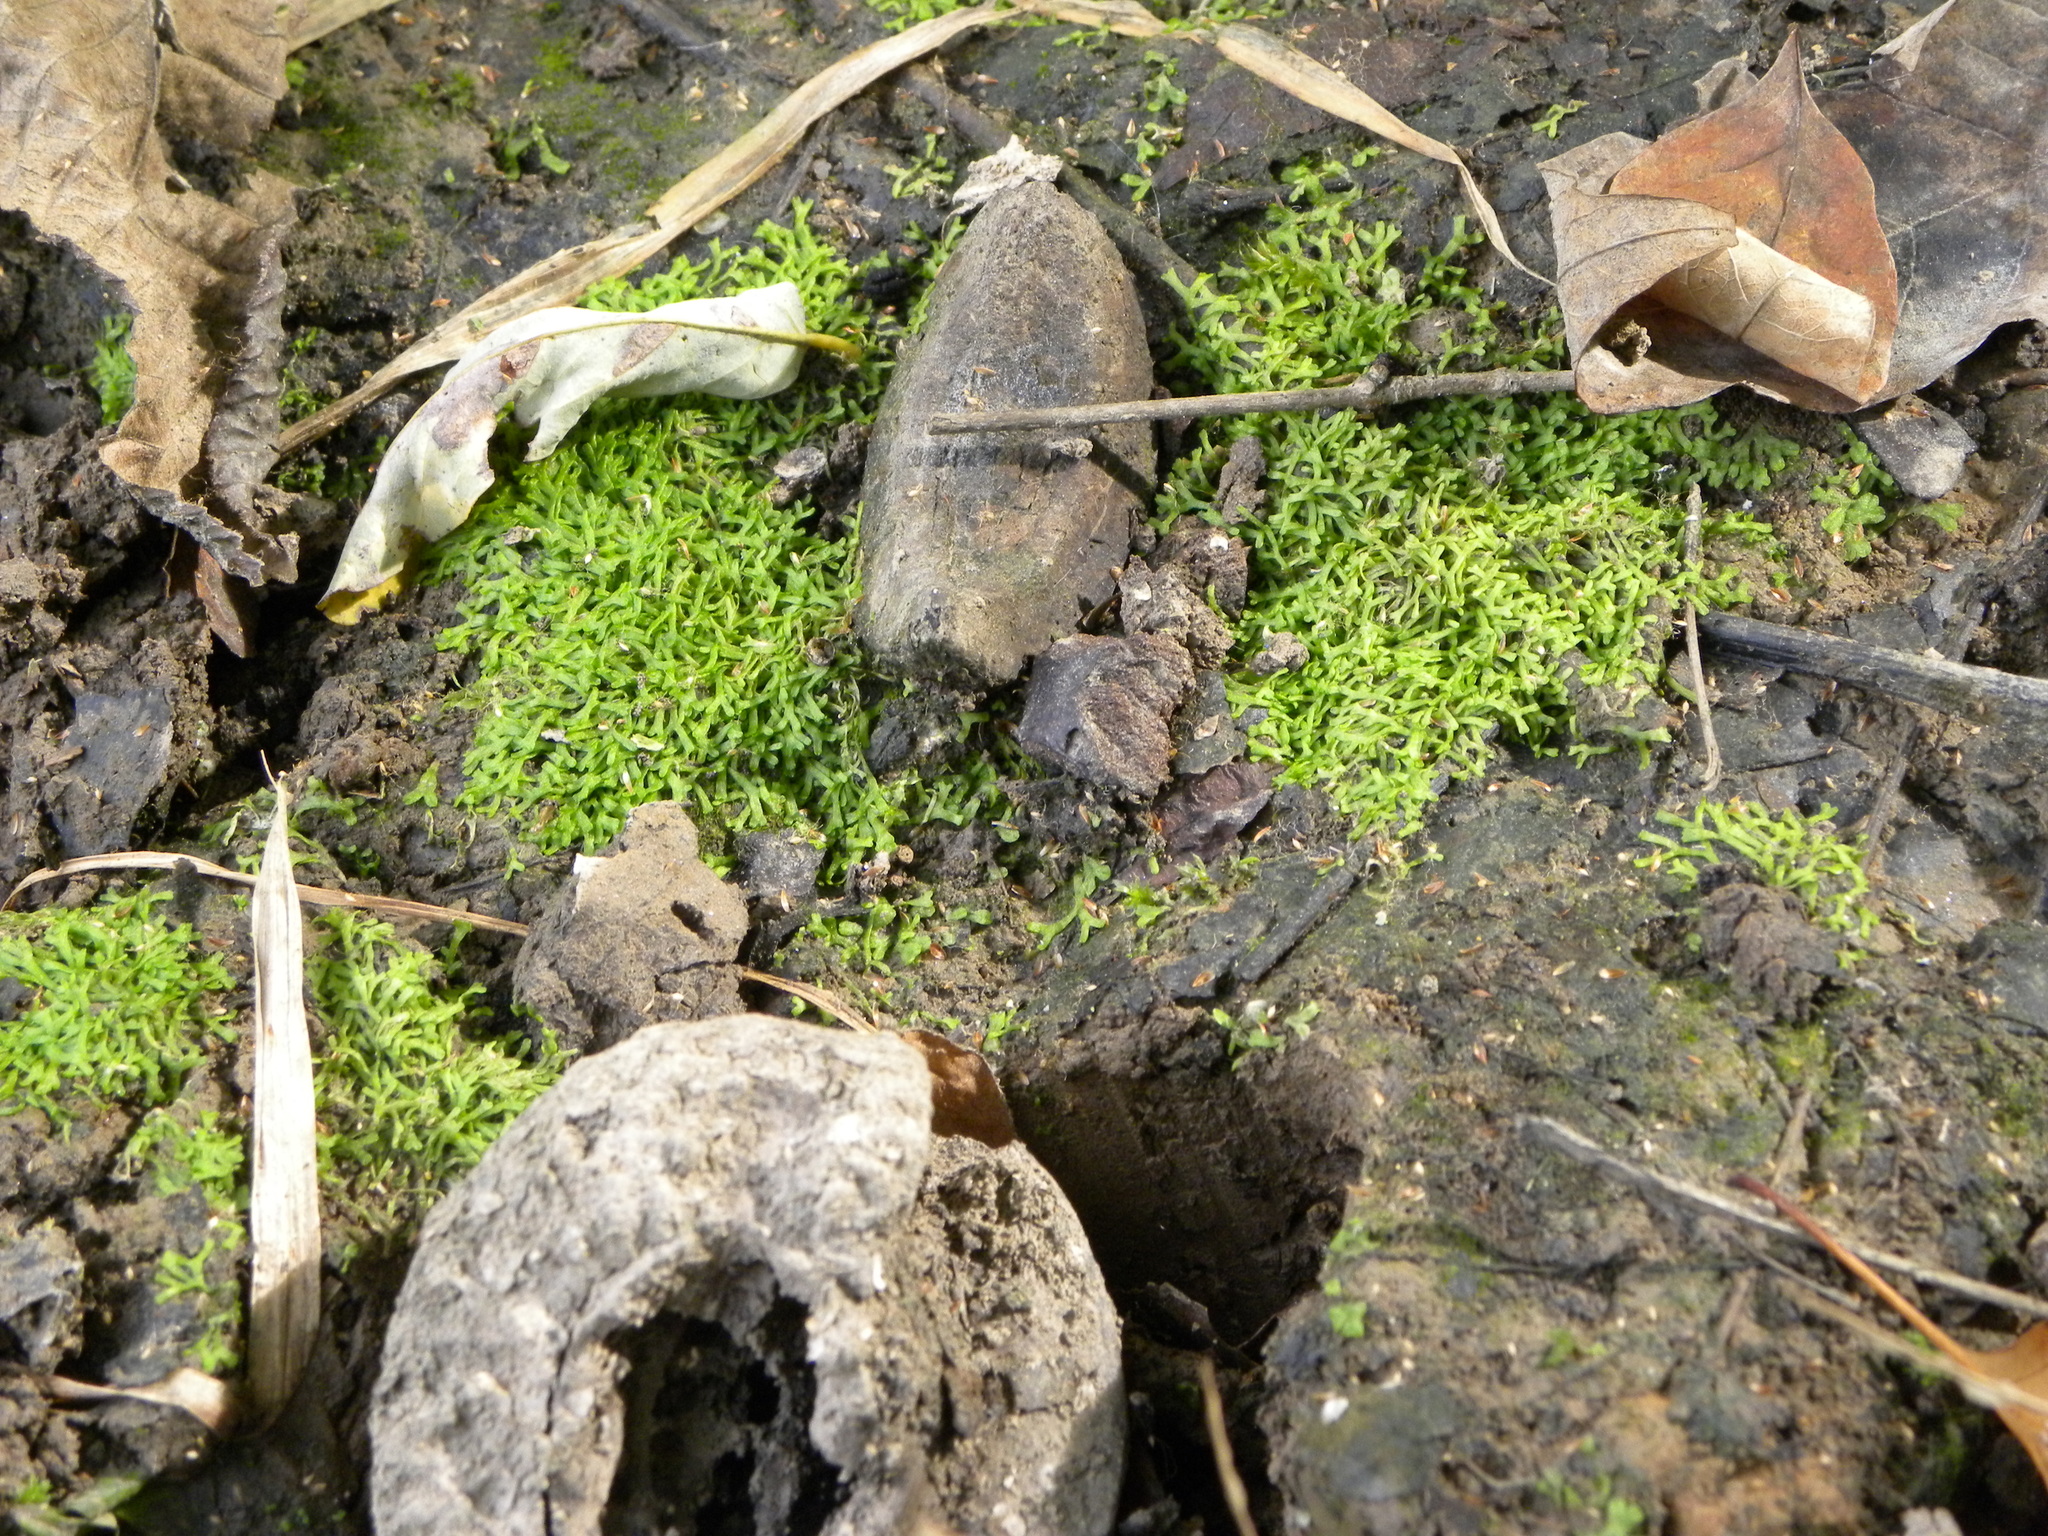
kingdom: Plantae
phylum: Marchantiophyta
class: Marchantiopsida
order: Marchantiales
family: Ricciaceae
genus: Riccia
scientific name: Riccia fluitans
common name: Floating crystalwort
